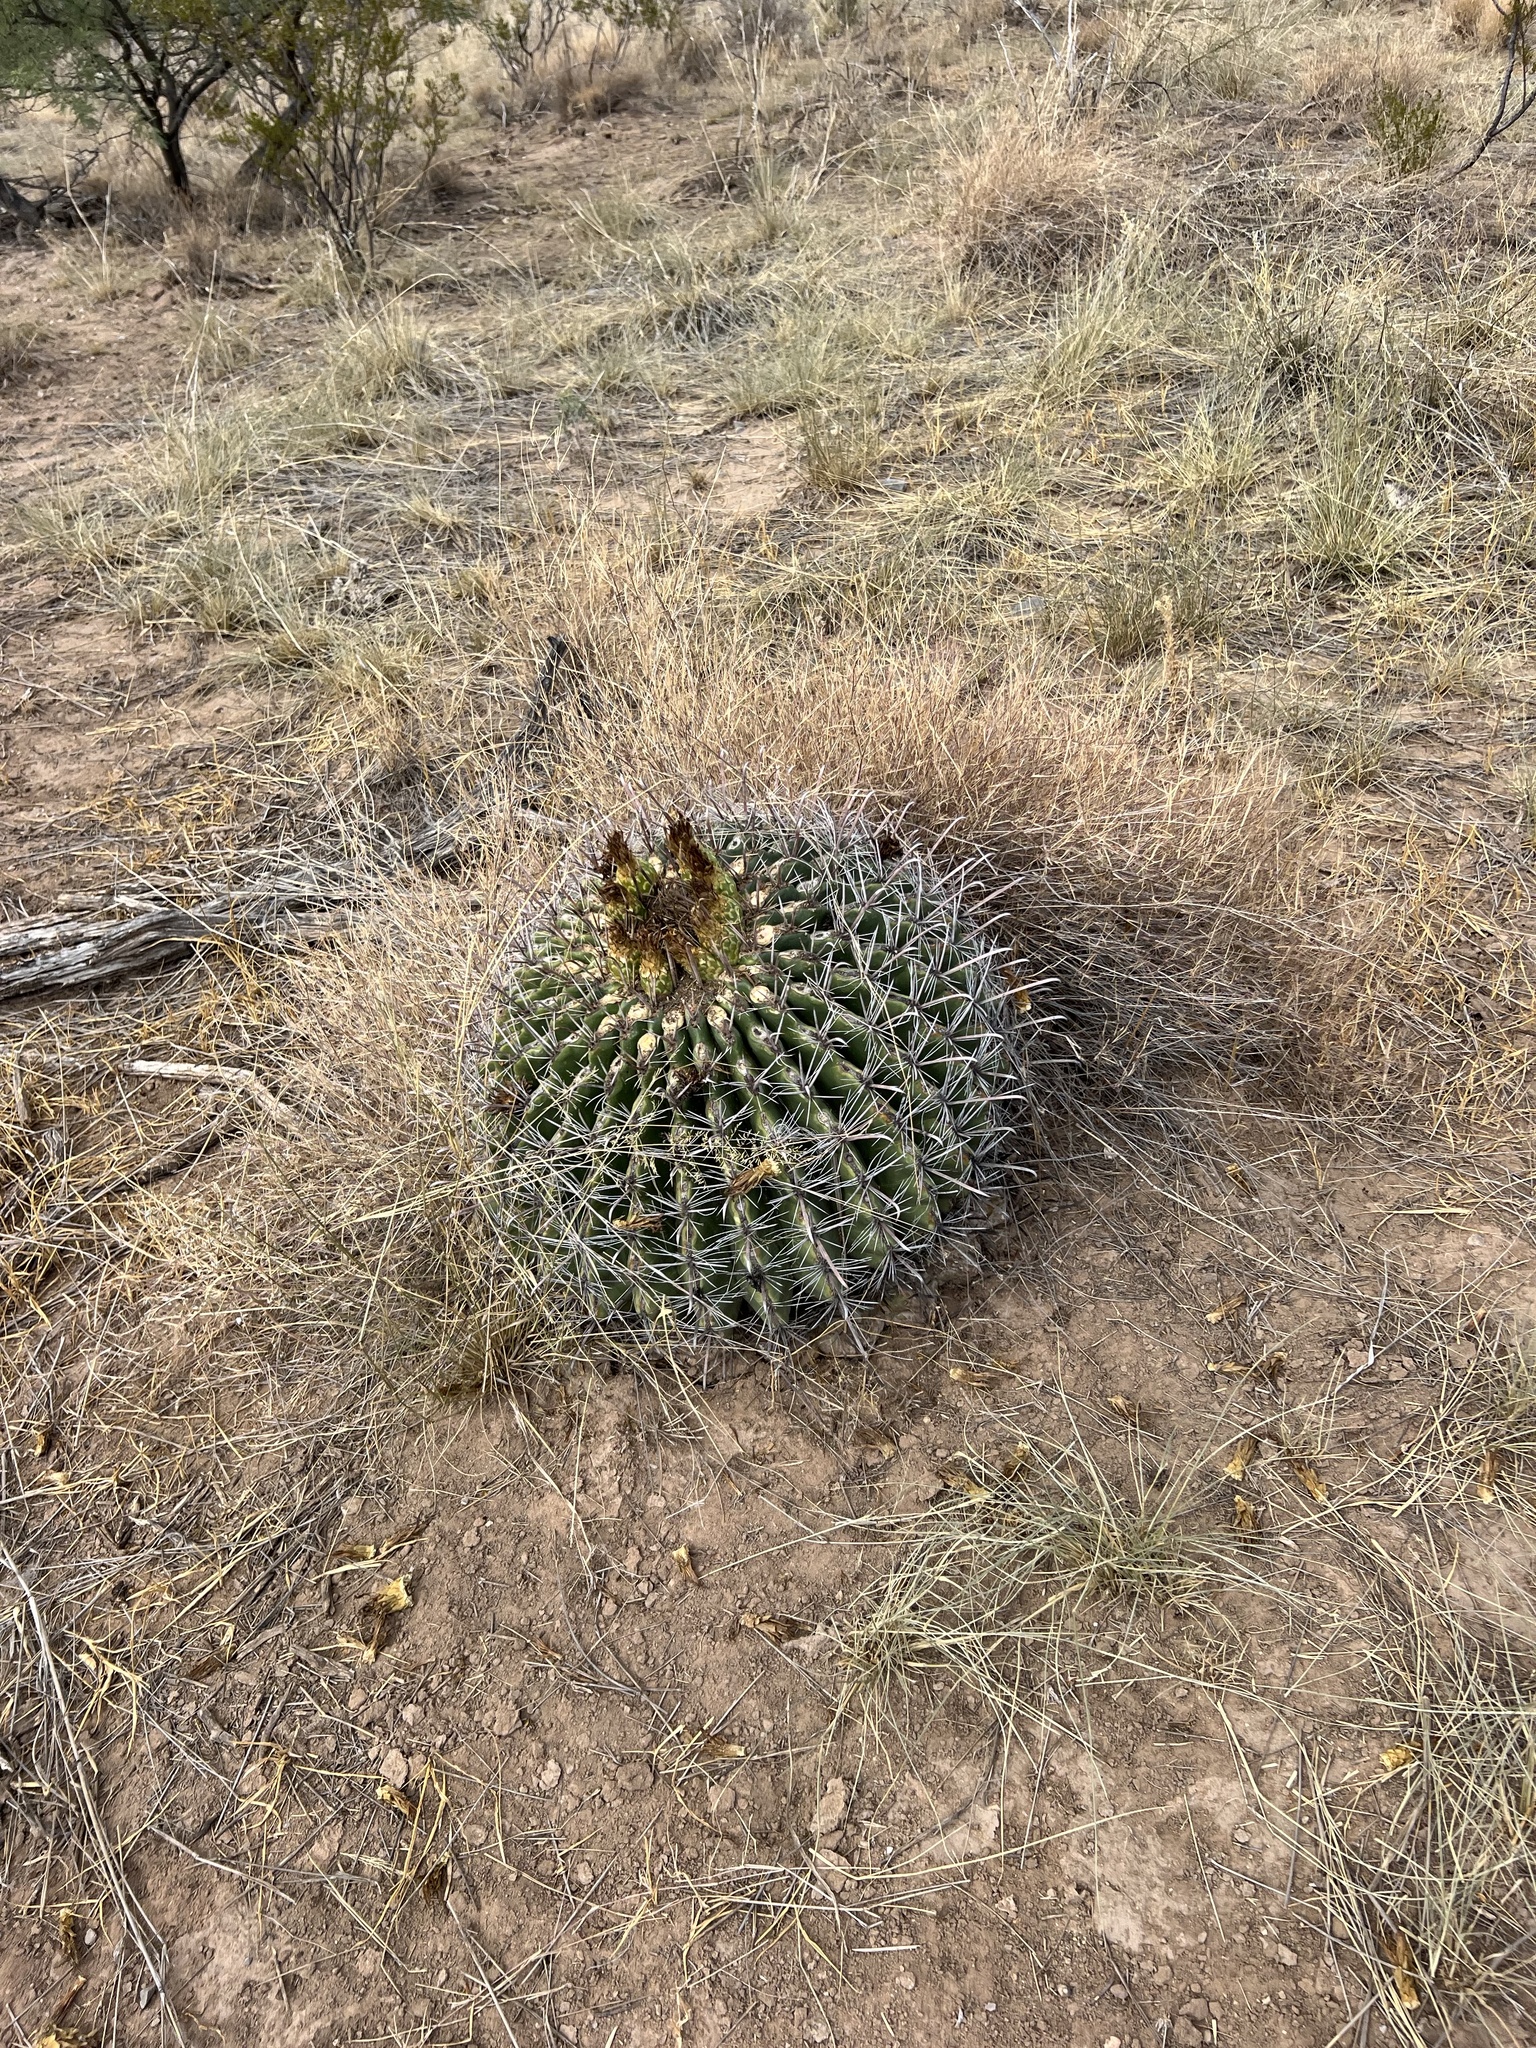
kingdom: Plantae
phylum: Tracheophyta
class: Magnoliopsida
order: Caryophyllales
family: Cactaceae
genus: Ferocactus
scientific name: Ferocactus wislizeni
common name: Candy barrel cactus
